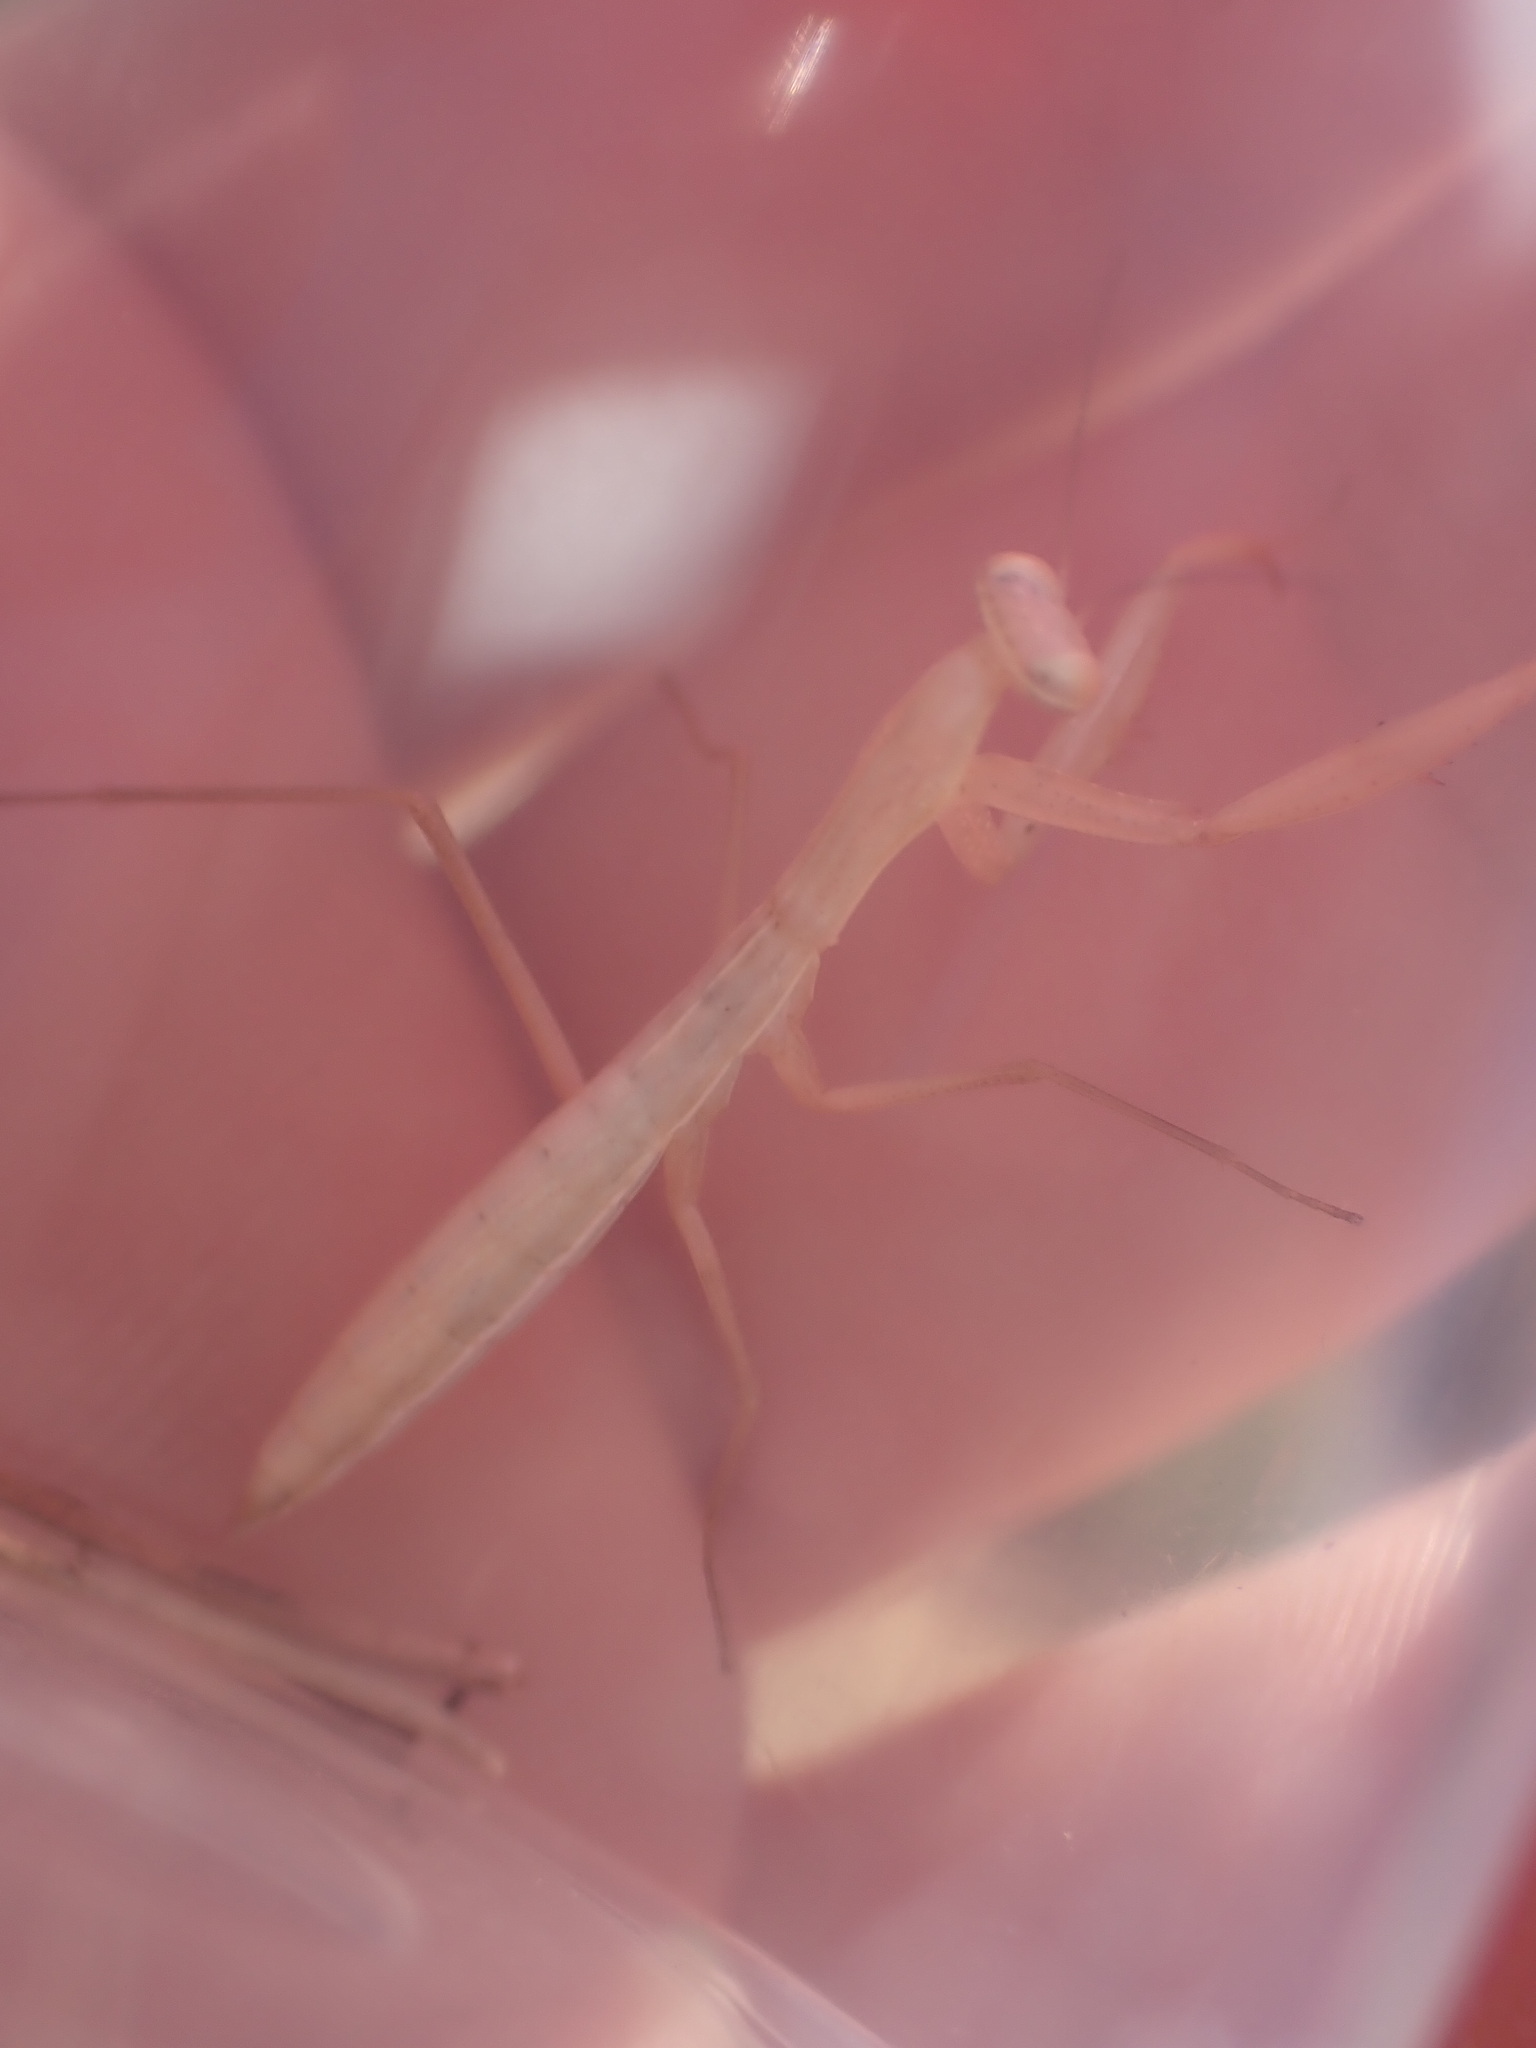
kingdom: Animalia
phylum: Arthropoda
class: Insecta
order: Mantodea
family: Mantidae
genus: Mantis
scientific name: Mantis religiosa
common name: Praying mantis
